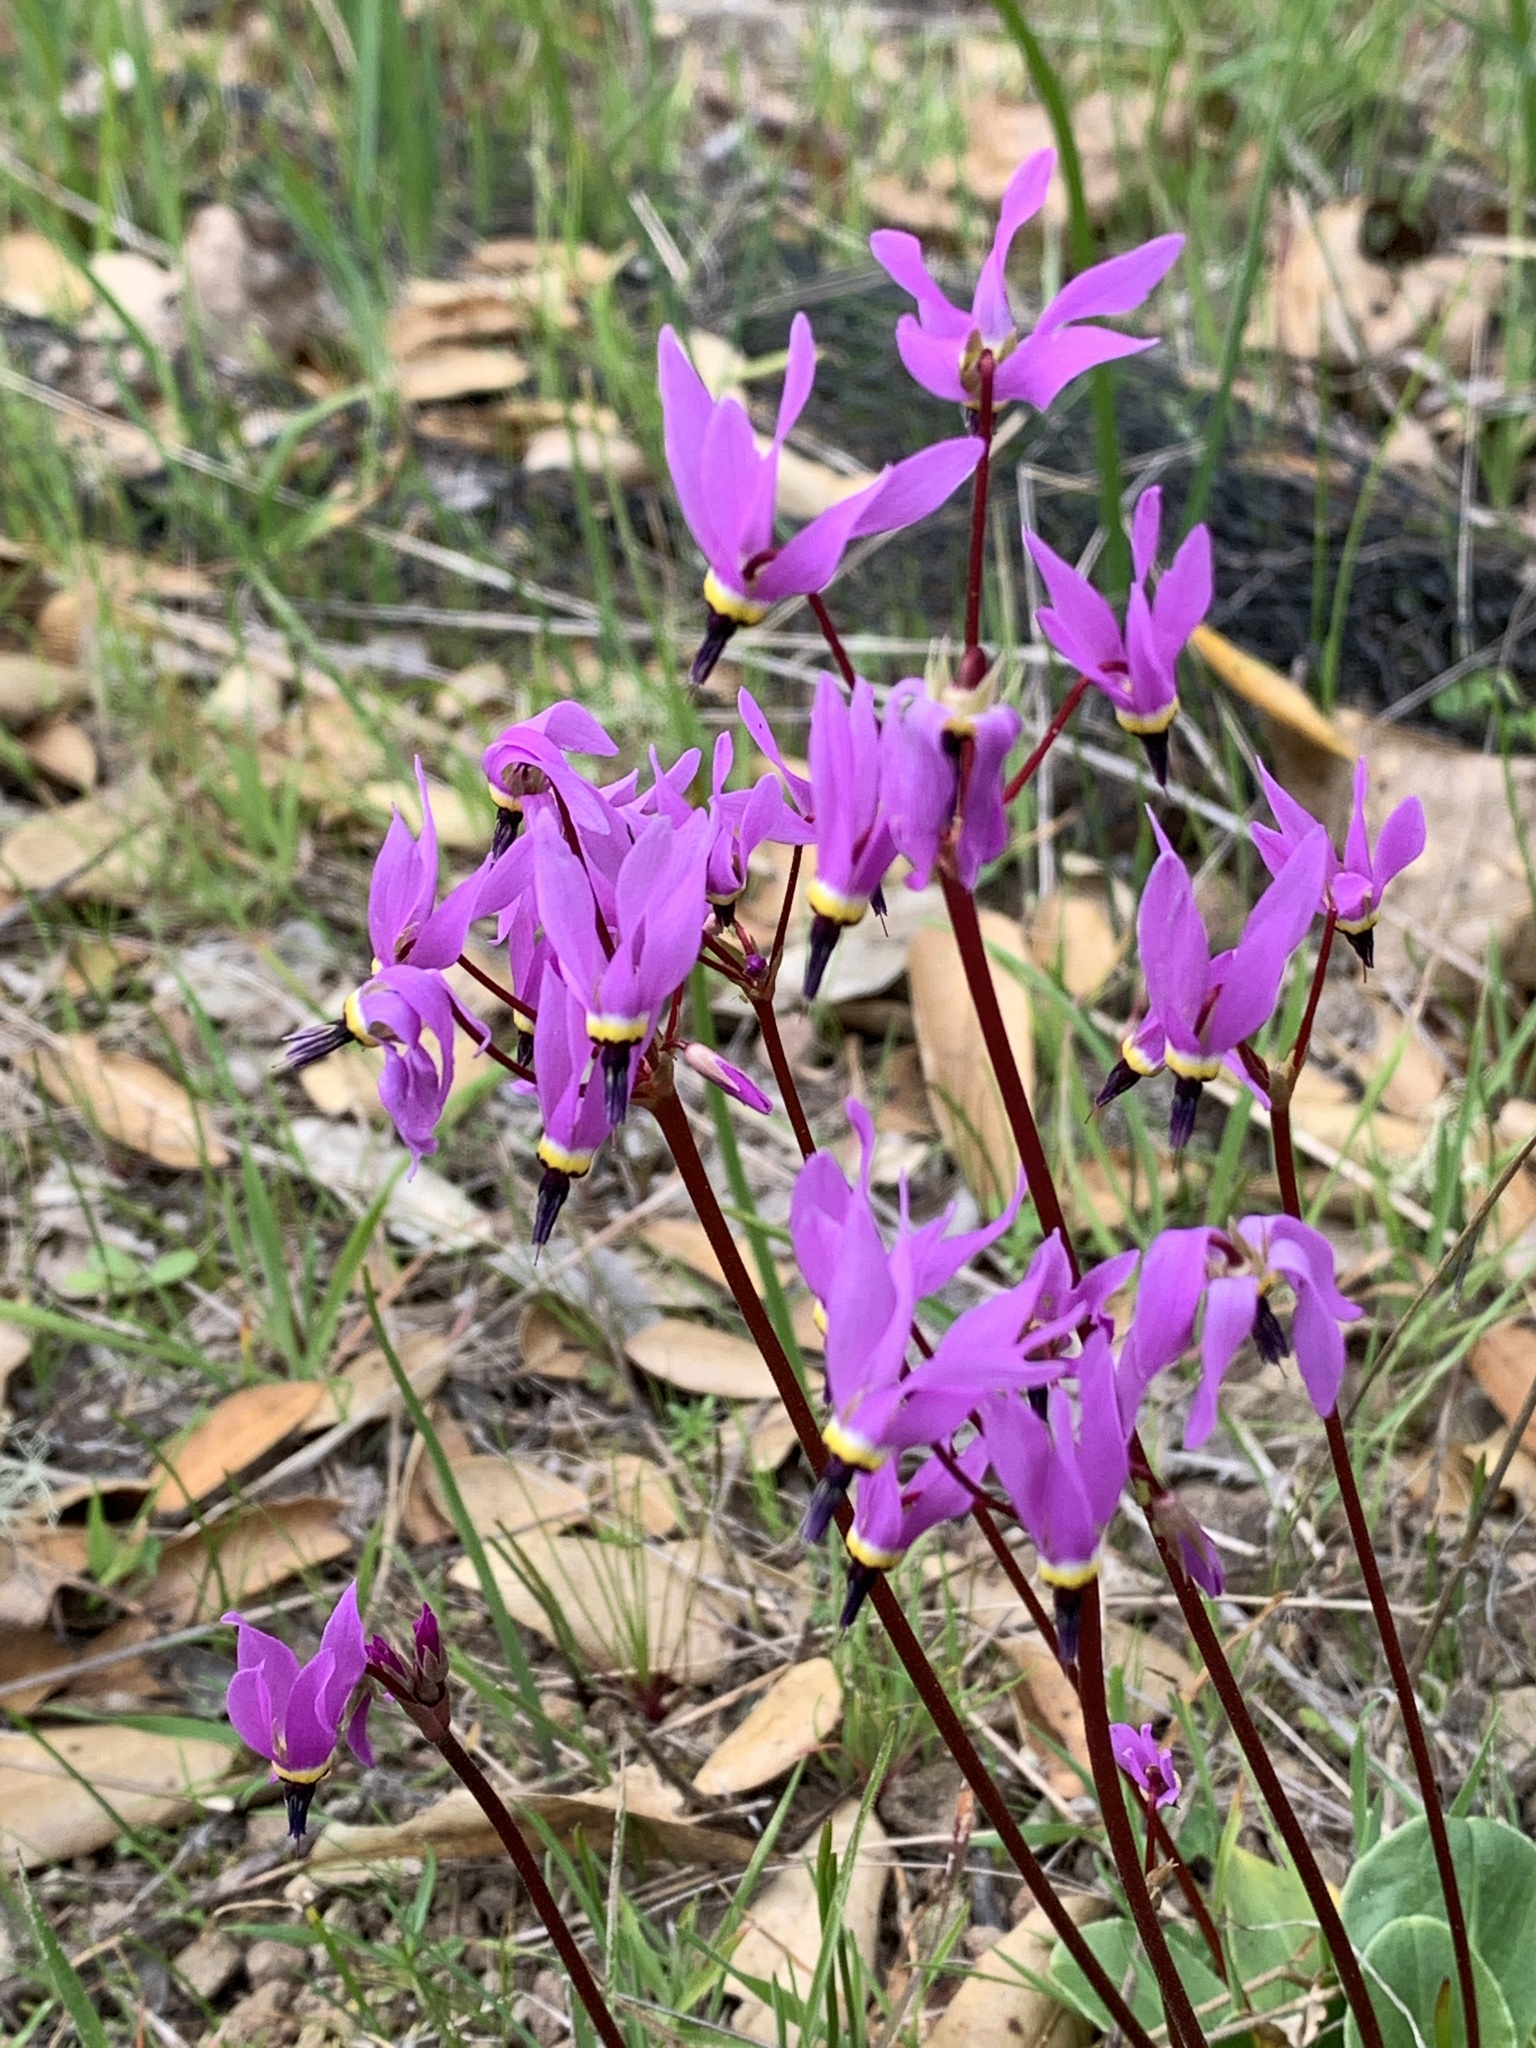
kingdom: Plantae
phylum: Tracheophyta
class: Magnoliopsida
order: Ericales
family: Primulaceae
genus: Dodecatheon
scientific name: Dodecatheon hendersonii
